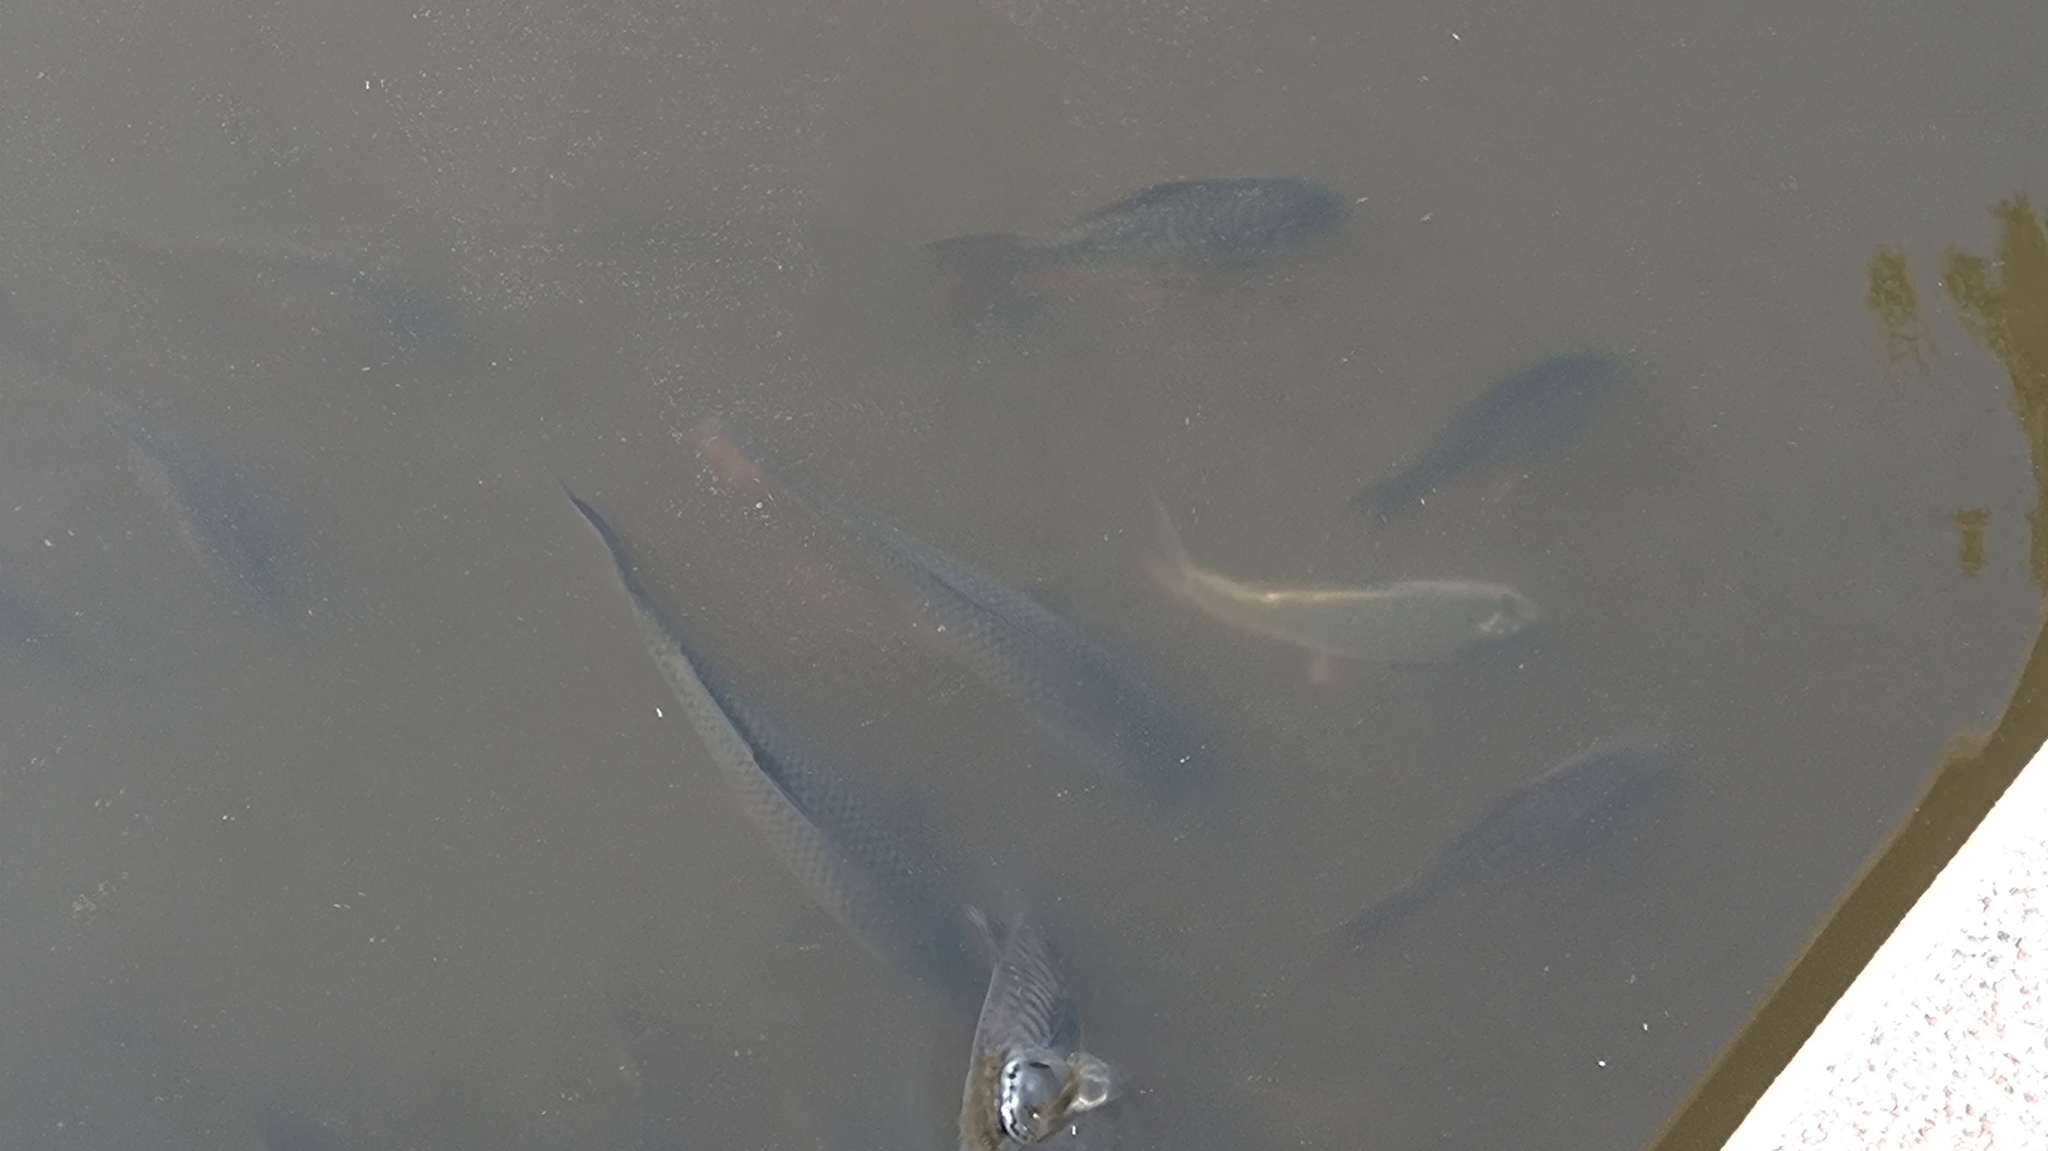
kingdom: Animalia
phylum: Chordata
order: Cypriniformes
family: Cyprinidae
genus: Cyprinus
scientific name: Cyprinus carpio
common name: Common carp
